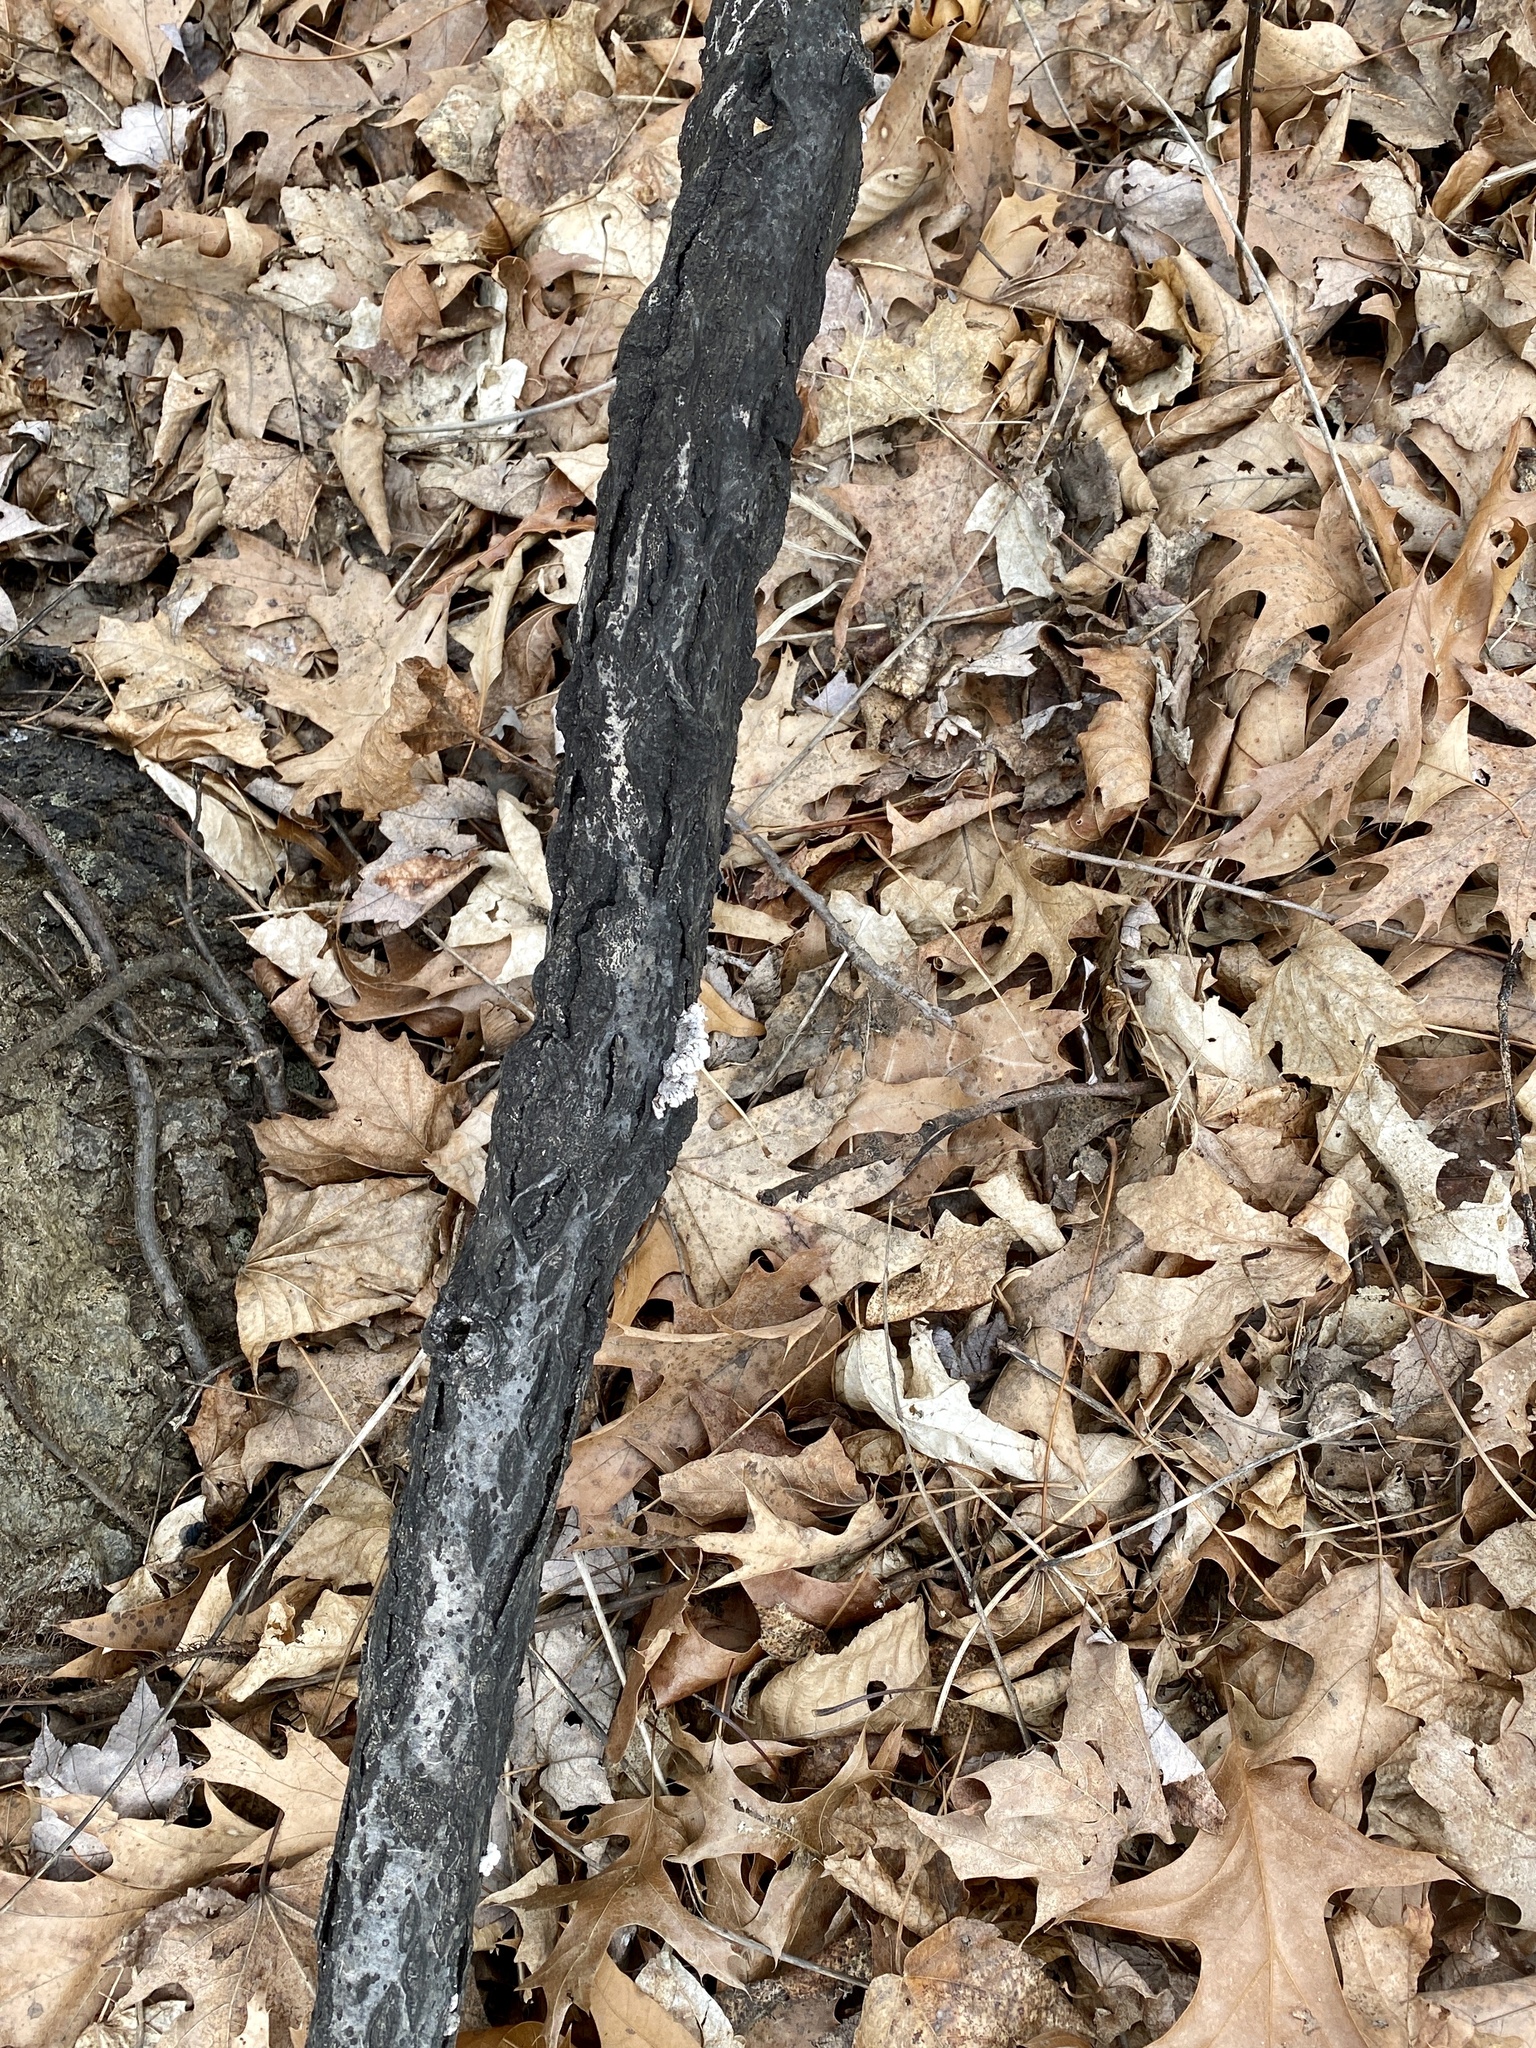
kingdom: Fungi
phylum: Basidiomycota
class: Agaricomycetes
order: Agaricales
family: Schizophyllaceae
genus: Schizophyllum
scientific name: Schizophyllum commune
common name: Common porecrust
